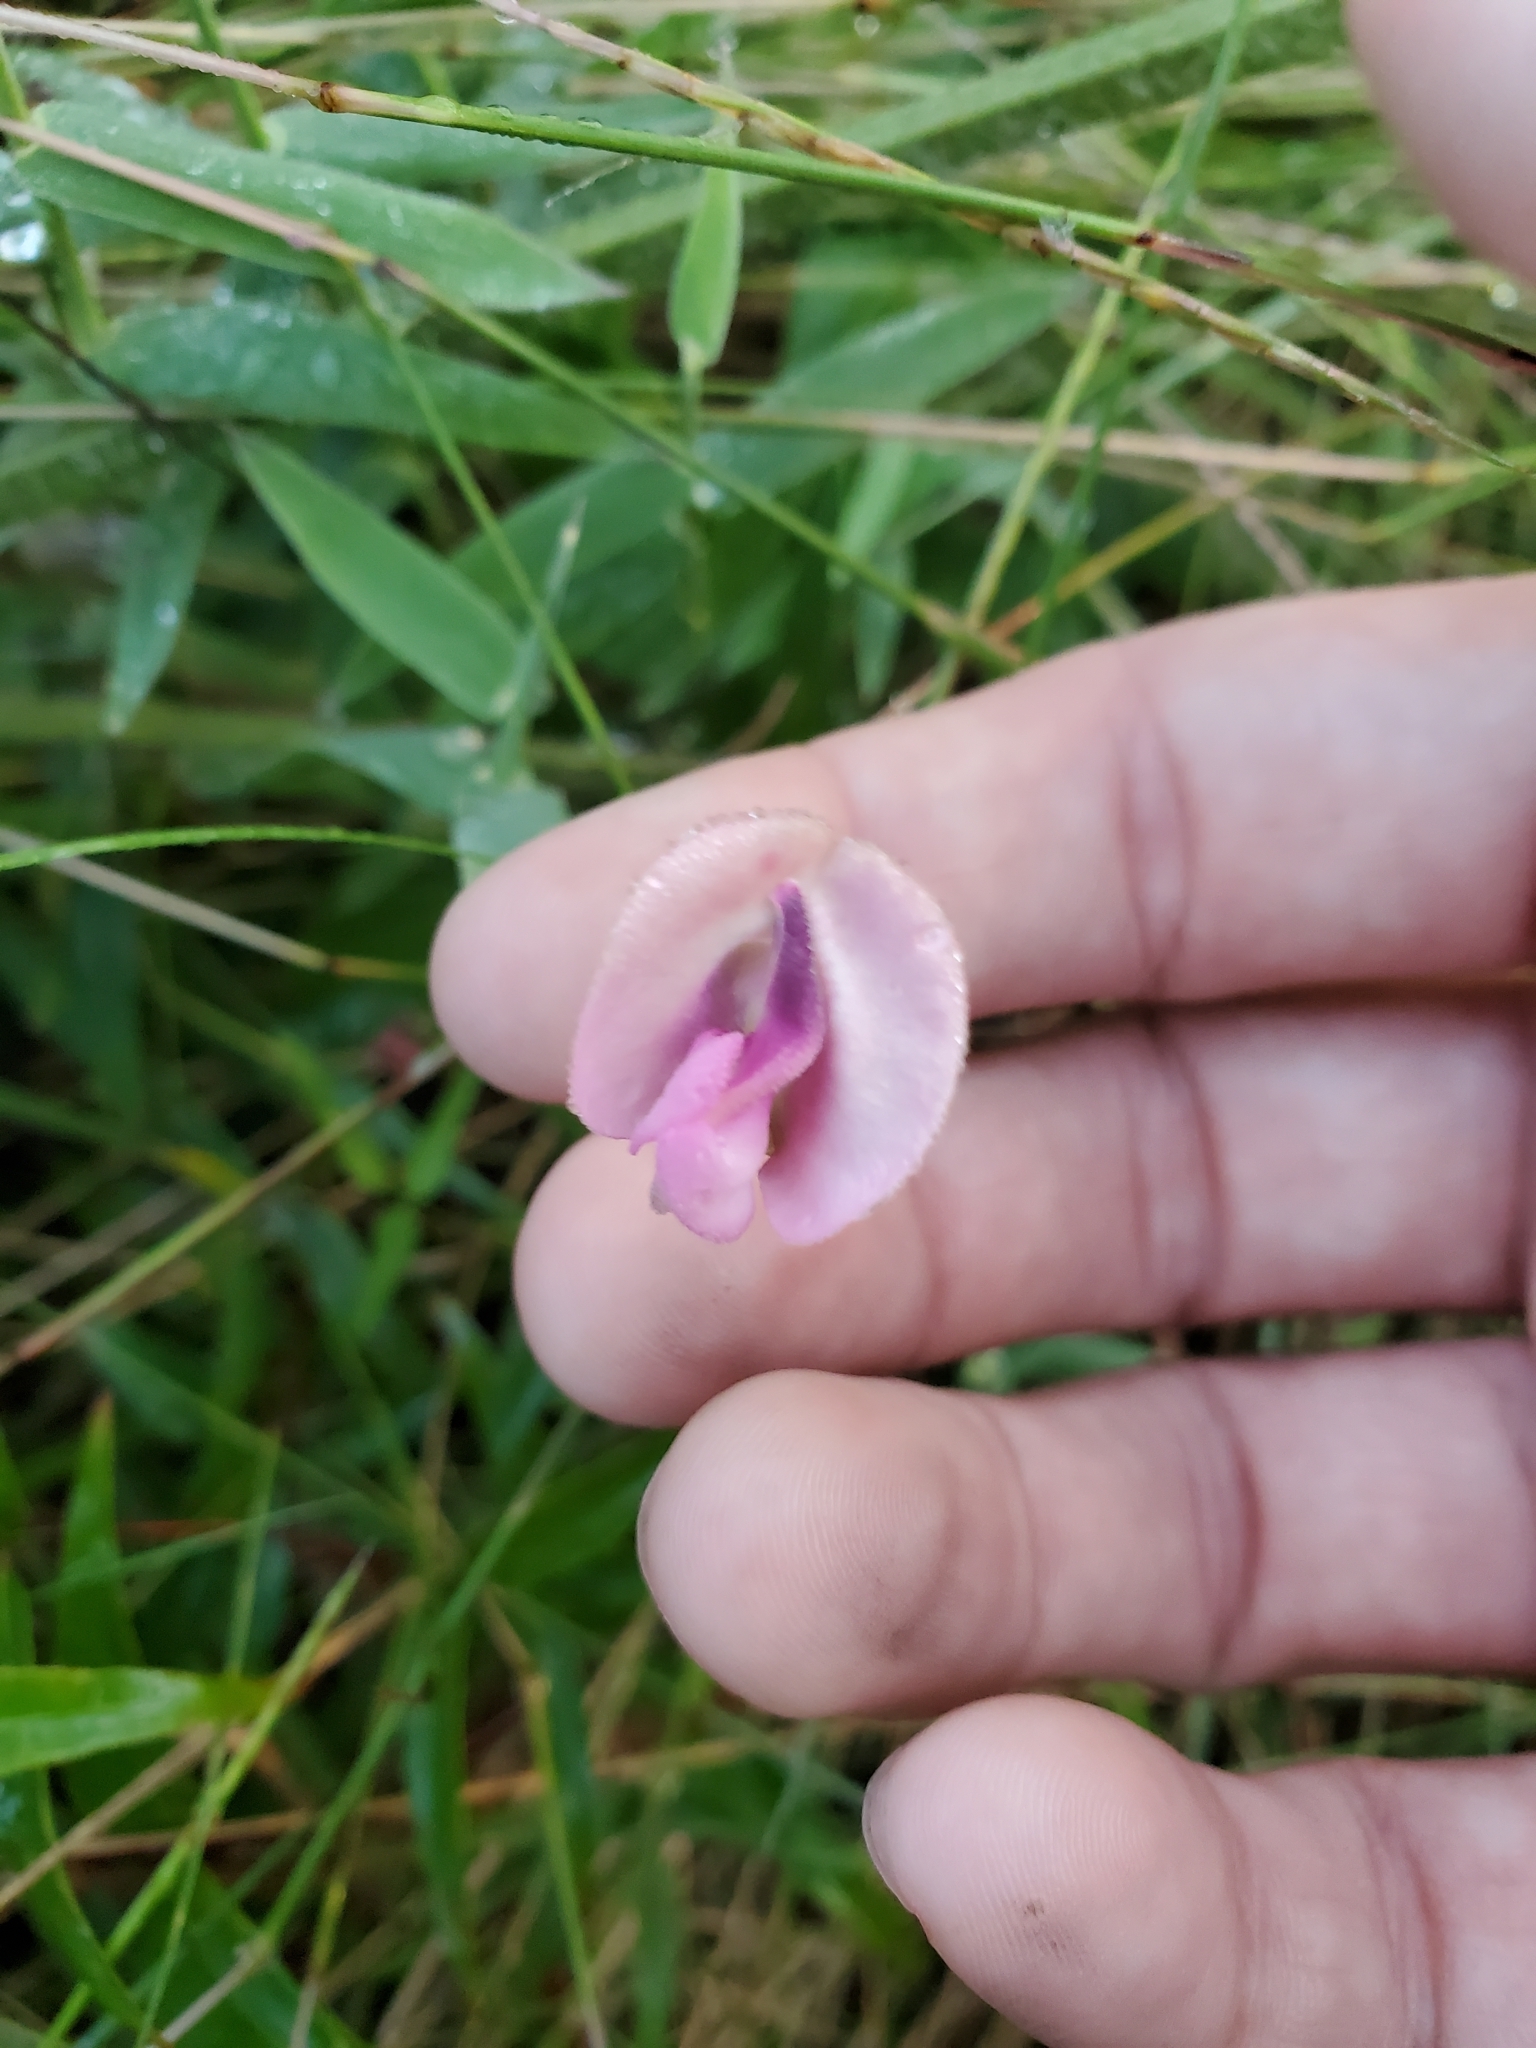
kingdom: Plantae
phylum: Tracheophyta
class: Magnoliopsida
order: Fabales
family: Fabaceae
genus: Strophostyles
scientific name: Strophostyles umbellata
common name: Perennial wild bean
